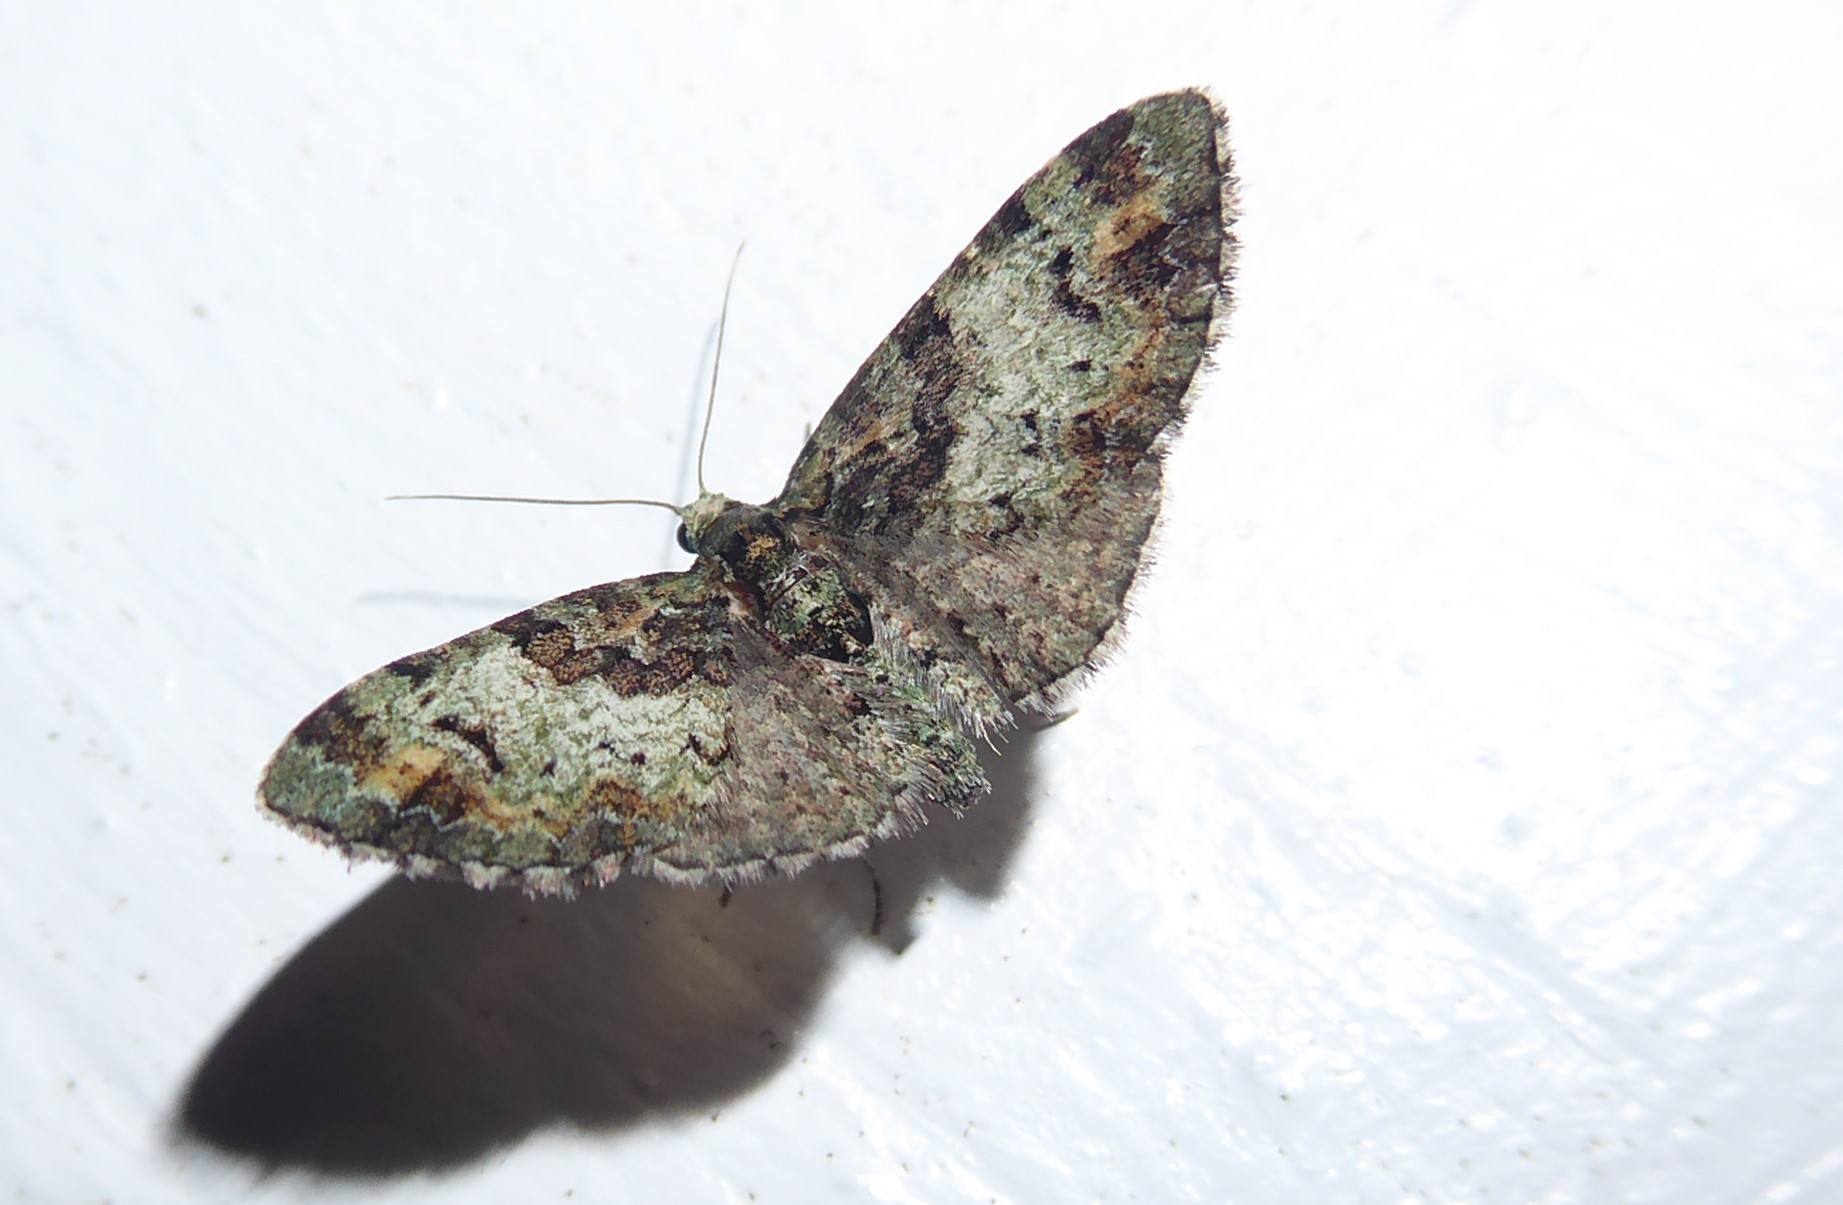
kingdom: Animalia
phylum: Arthropoda
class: Insecta
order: Lepidoptera
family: Geometridae
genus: Idaea
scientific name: Idaea mutanda
